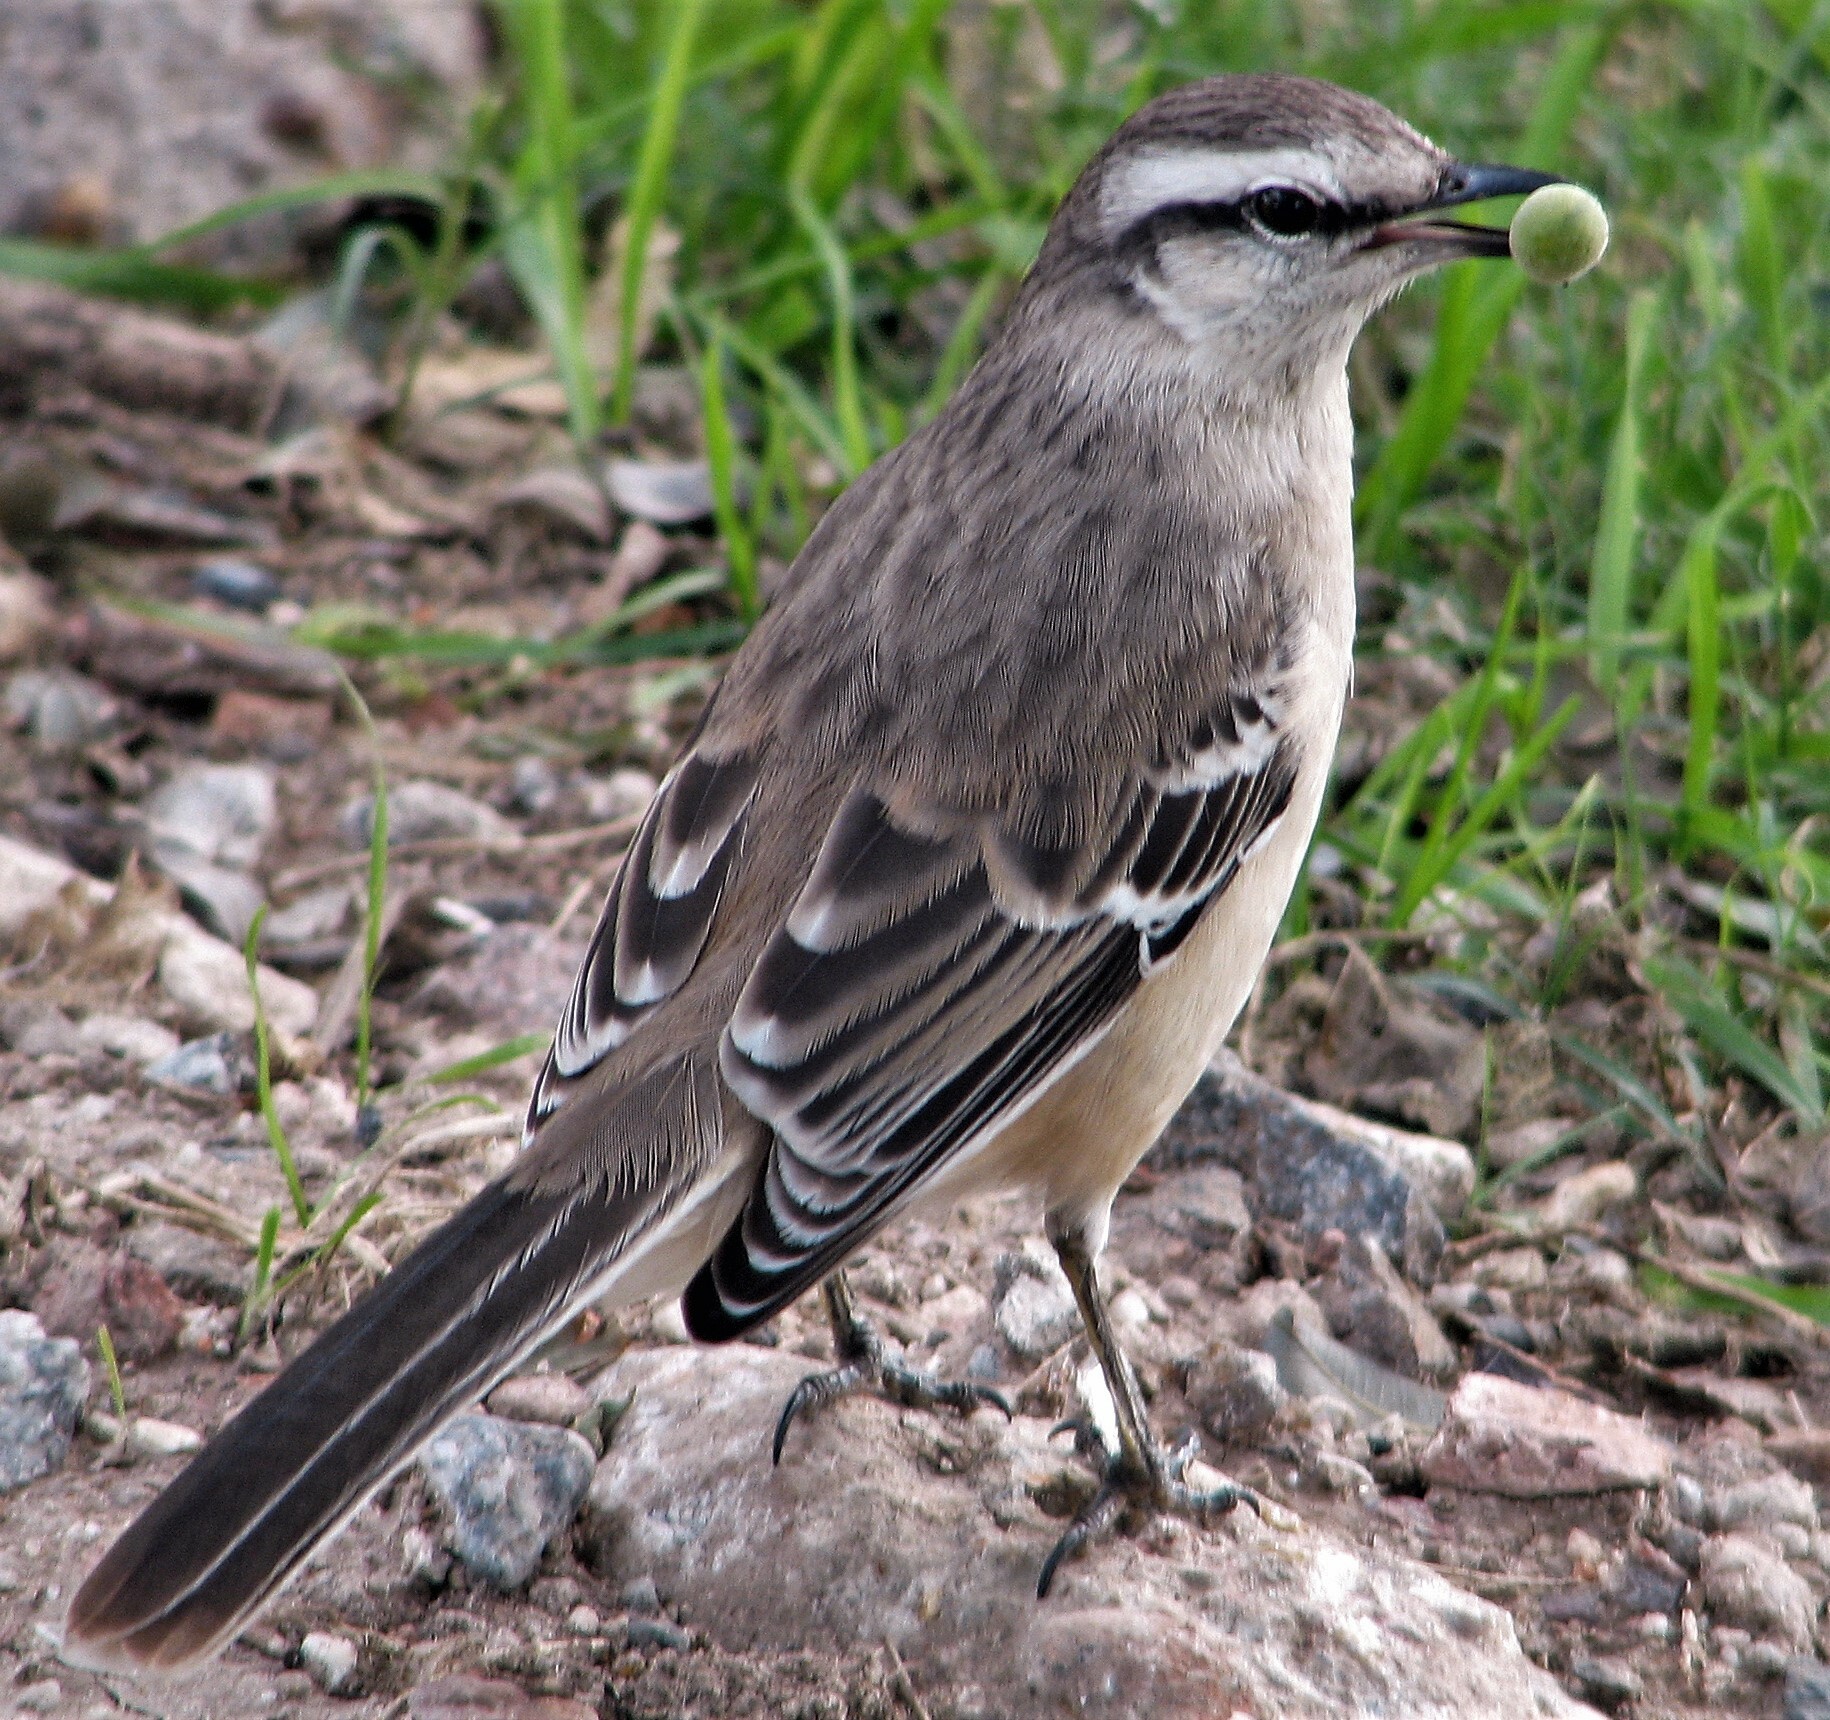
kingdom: Animalia
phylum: Chordata
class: Aves
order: Passeriformes
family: Mimidae
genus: Mimus
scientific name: Mimus saturninus
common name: Chalk-browed mockingbird
